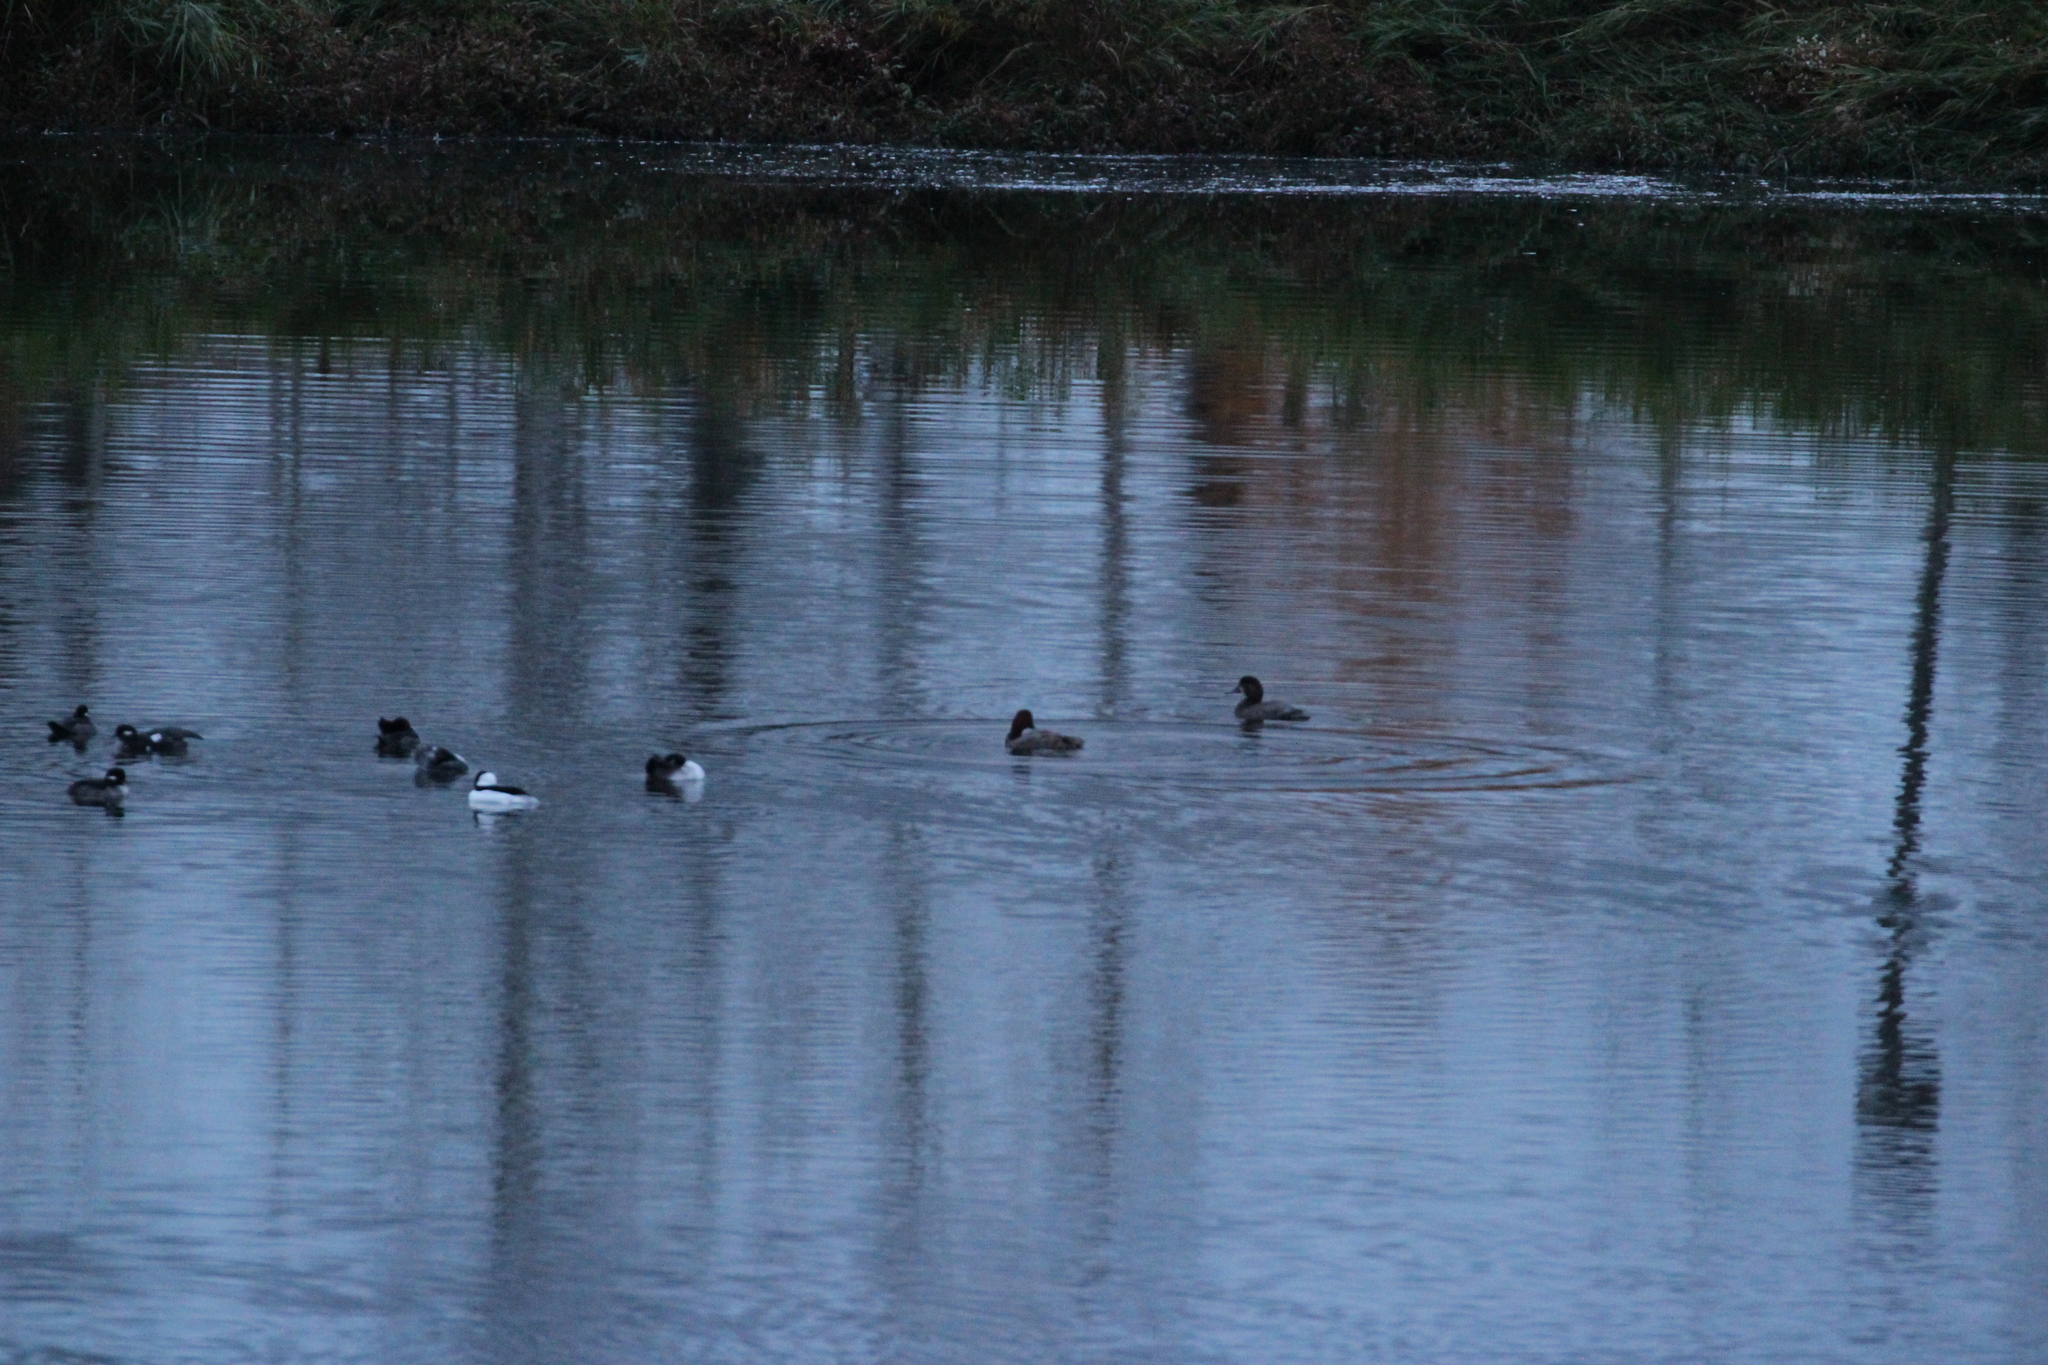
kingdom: Animalia
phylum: Chordata
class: Aves
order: Anseriformes
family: Anatidae
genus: Aythya
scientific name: Aythya americana
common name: Redhead
